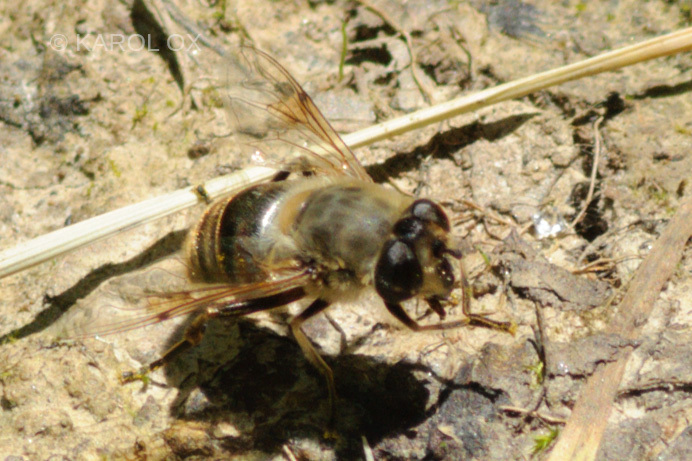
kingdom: Animalia
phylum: Arthropoda
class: Insecta
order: Diptera
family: Syrphidae
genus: Eristalis
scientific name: Eristalis tenax
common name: Drone fly
